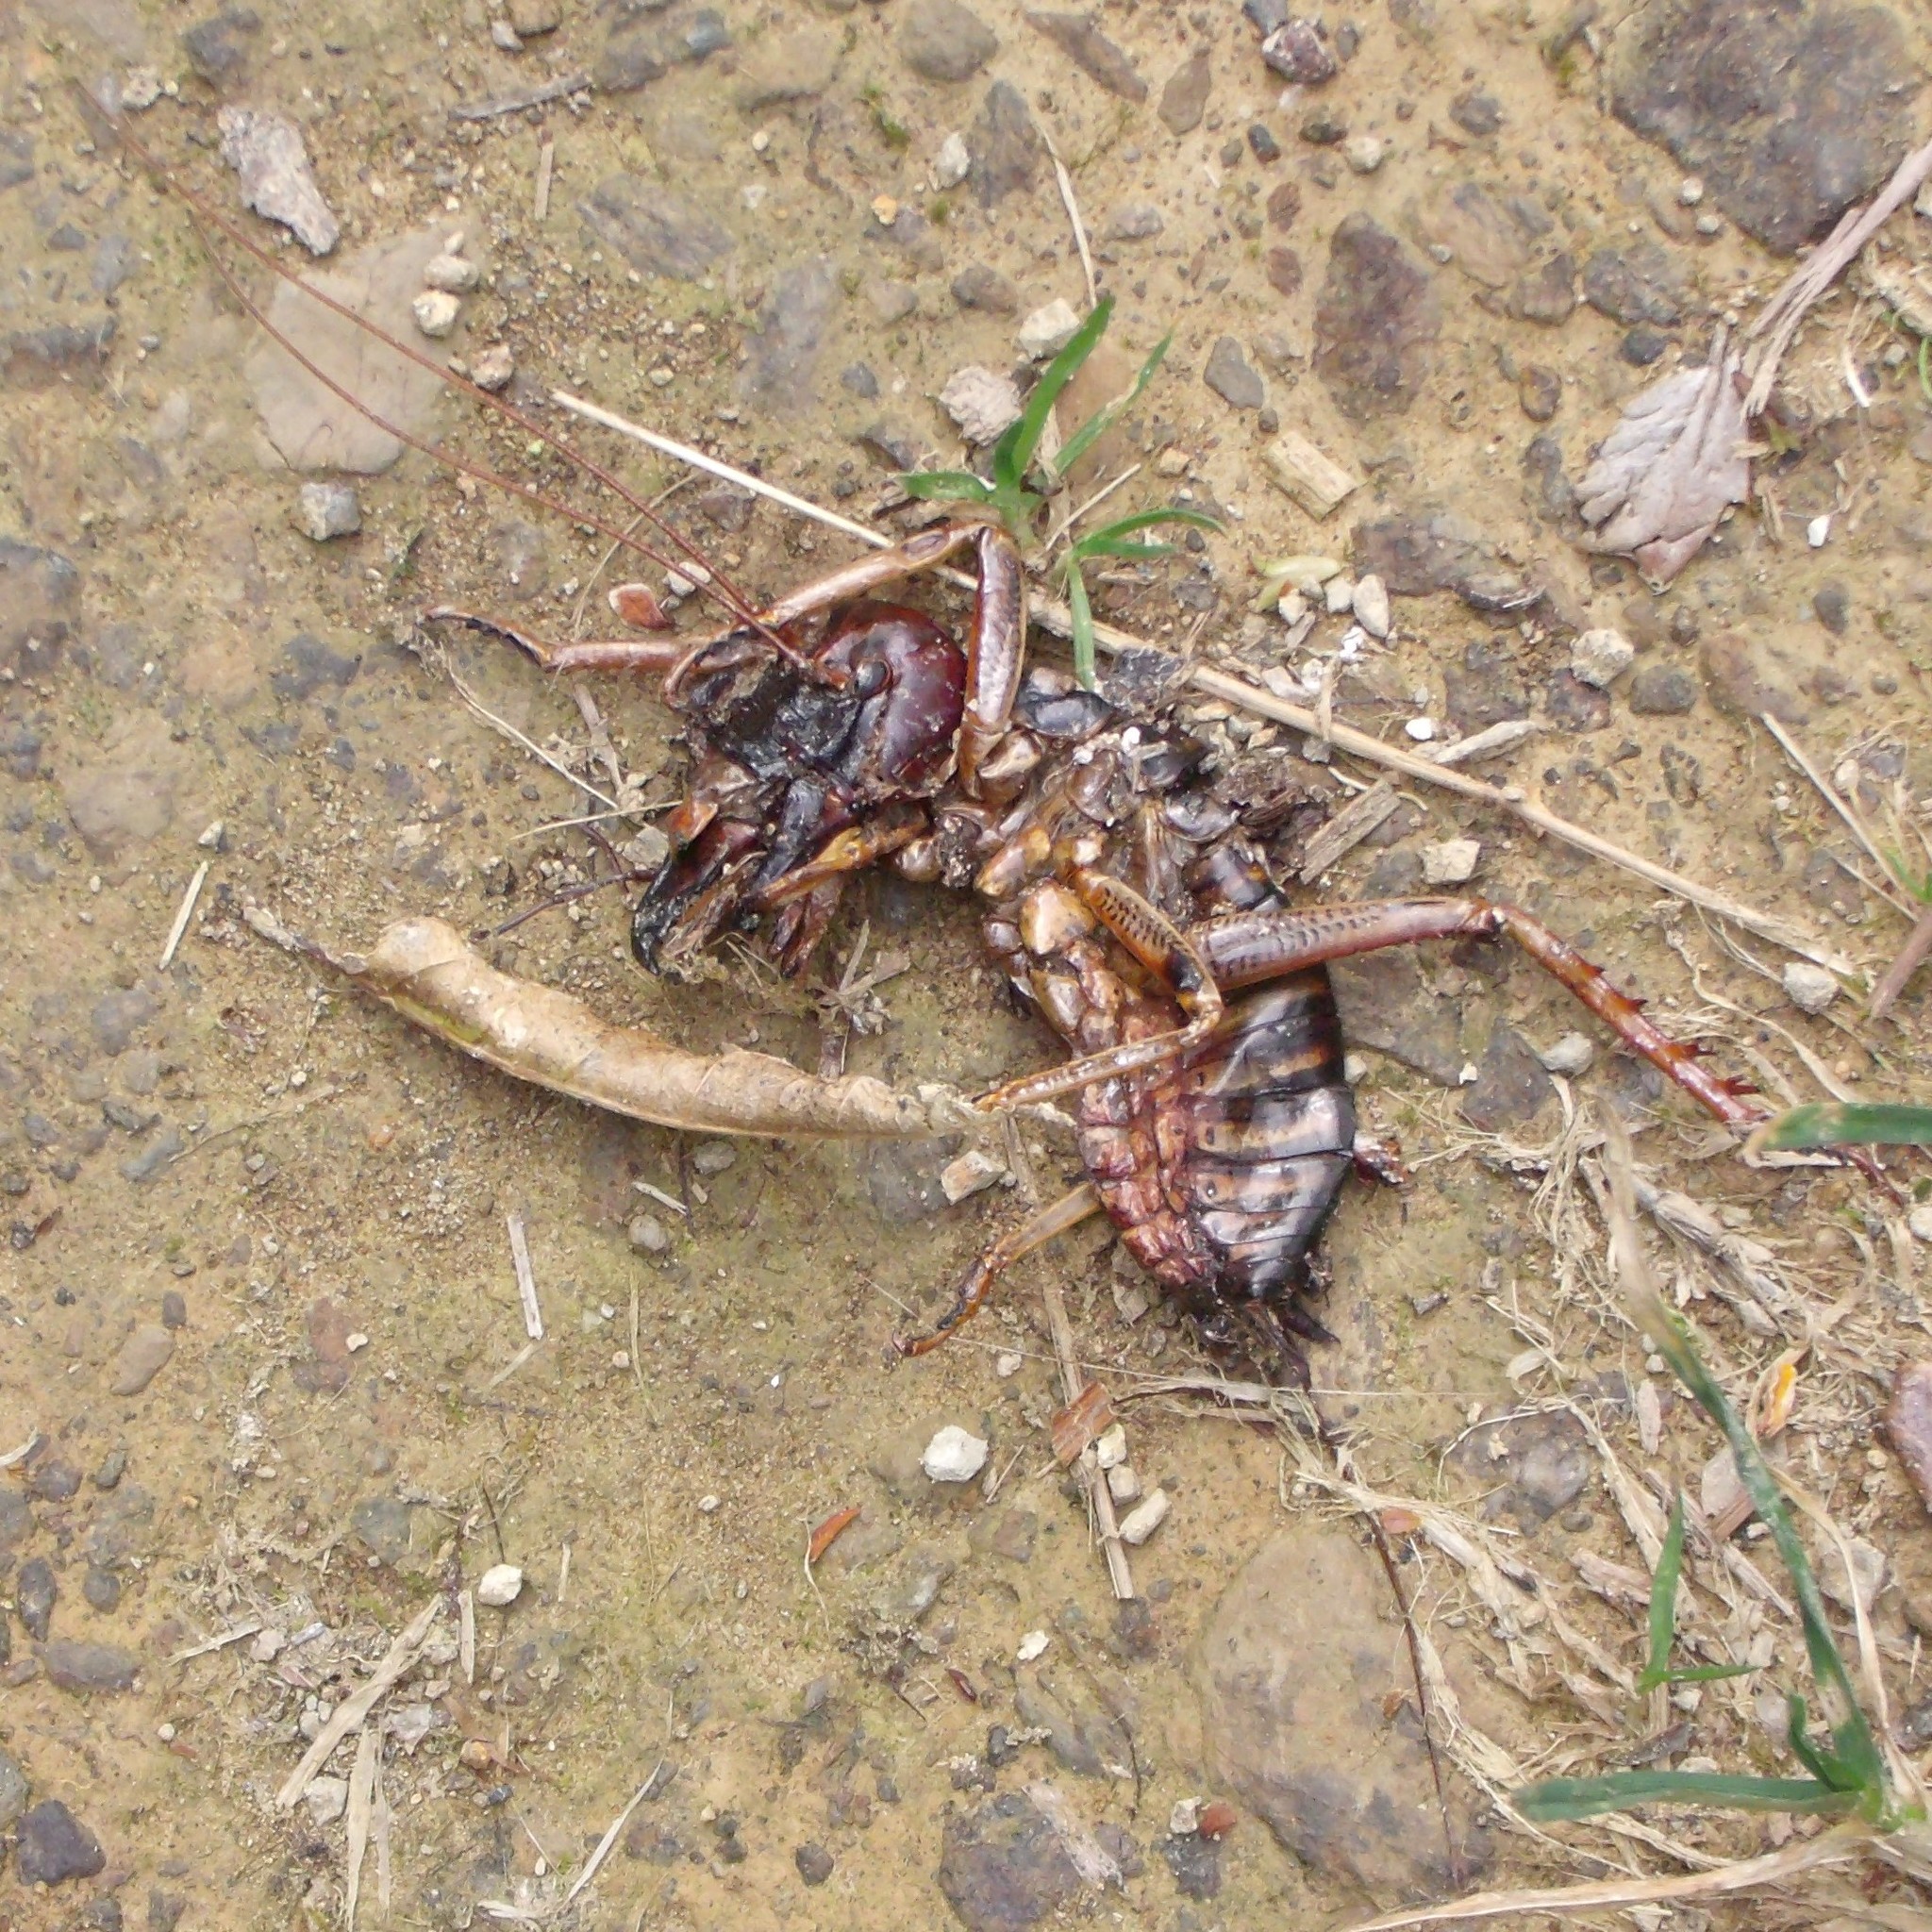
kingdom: Animalia
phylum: Arthropoda
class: Insecta
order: Orthoptera
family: Anostostomatidae
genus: Hemideina
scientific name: Hemideina crassidens
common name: Wellington tree weta
